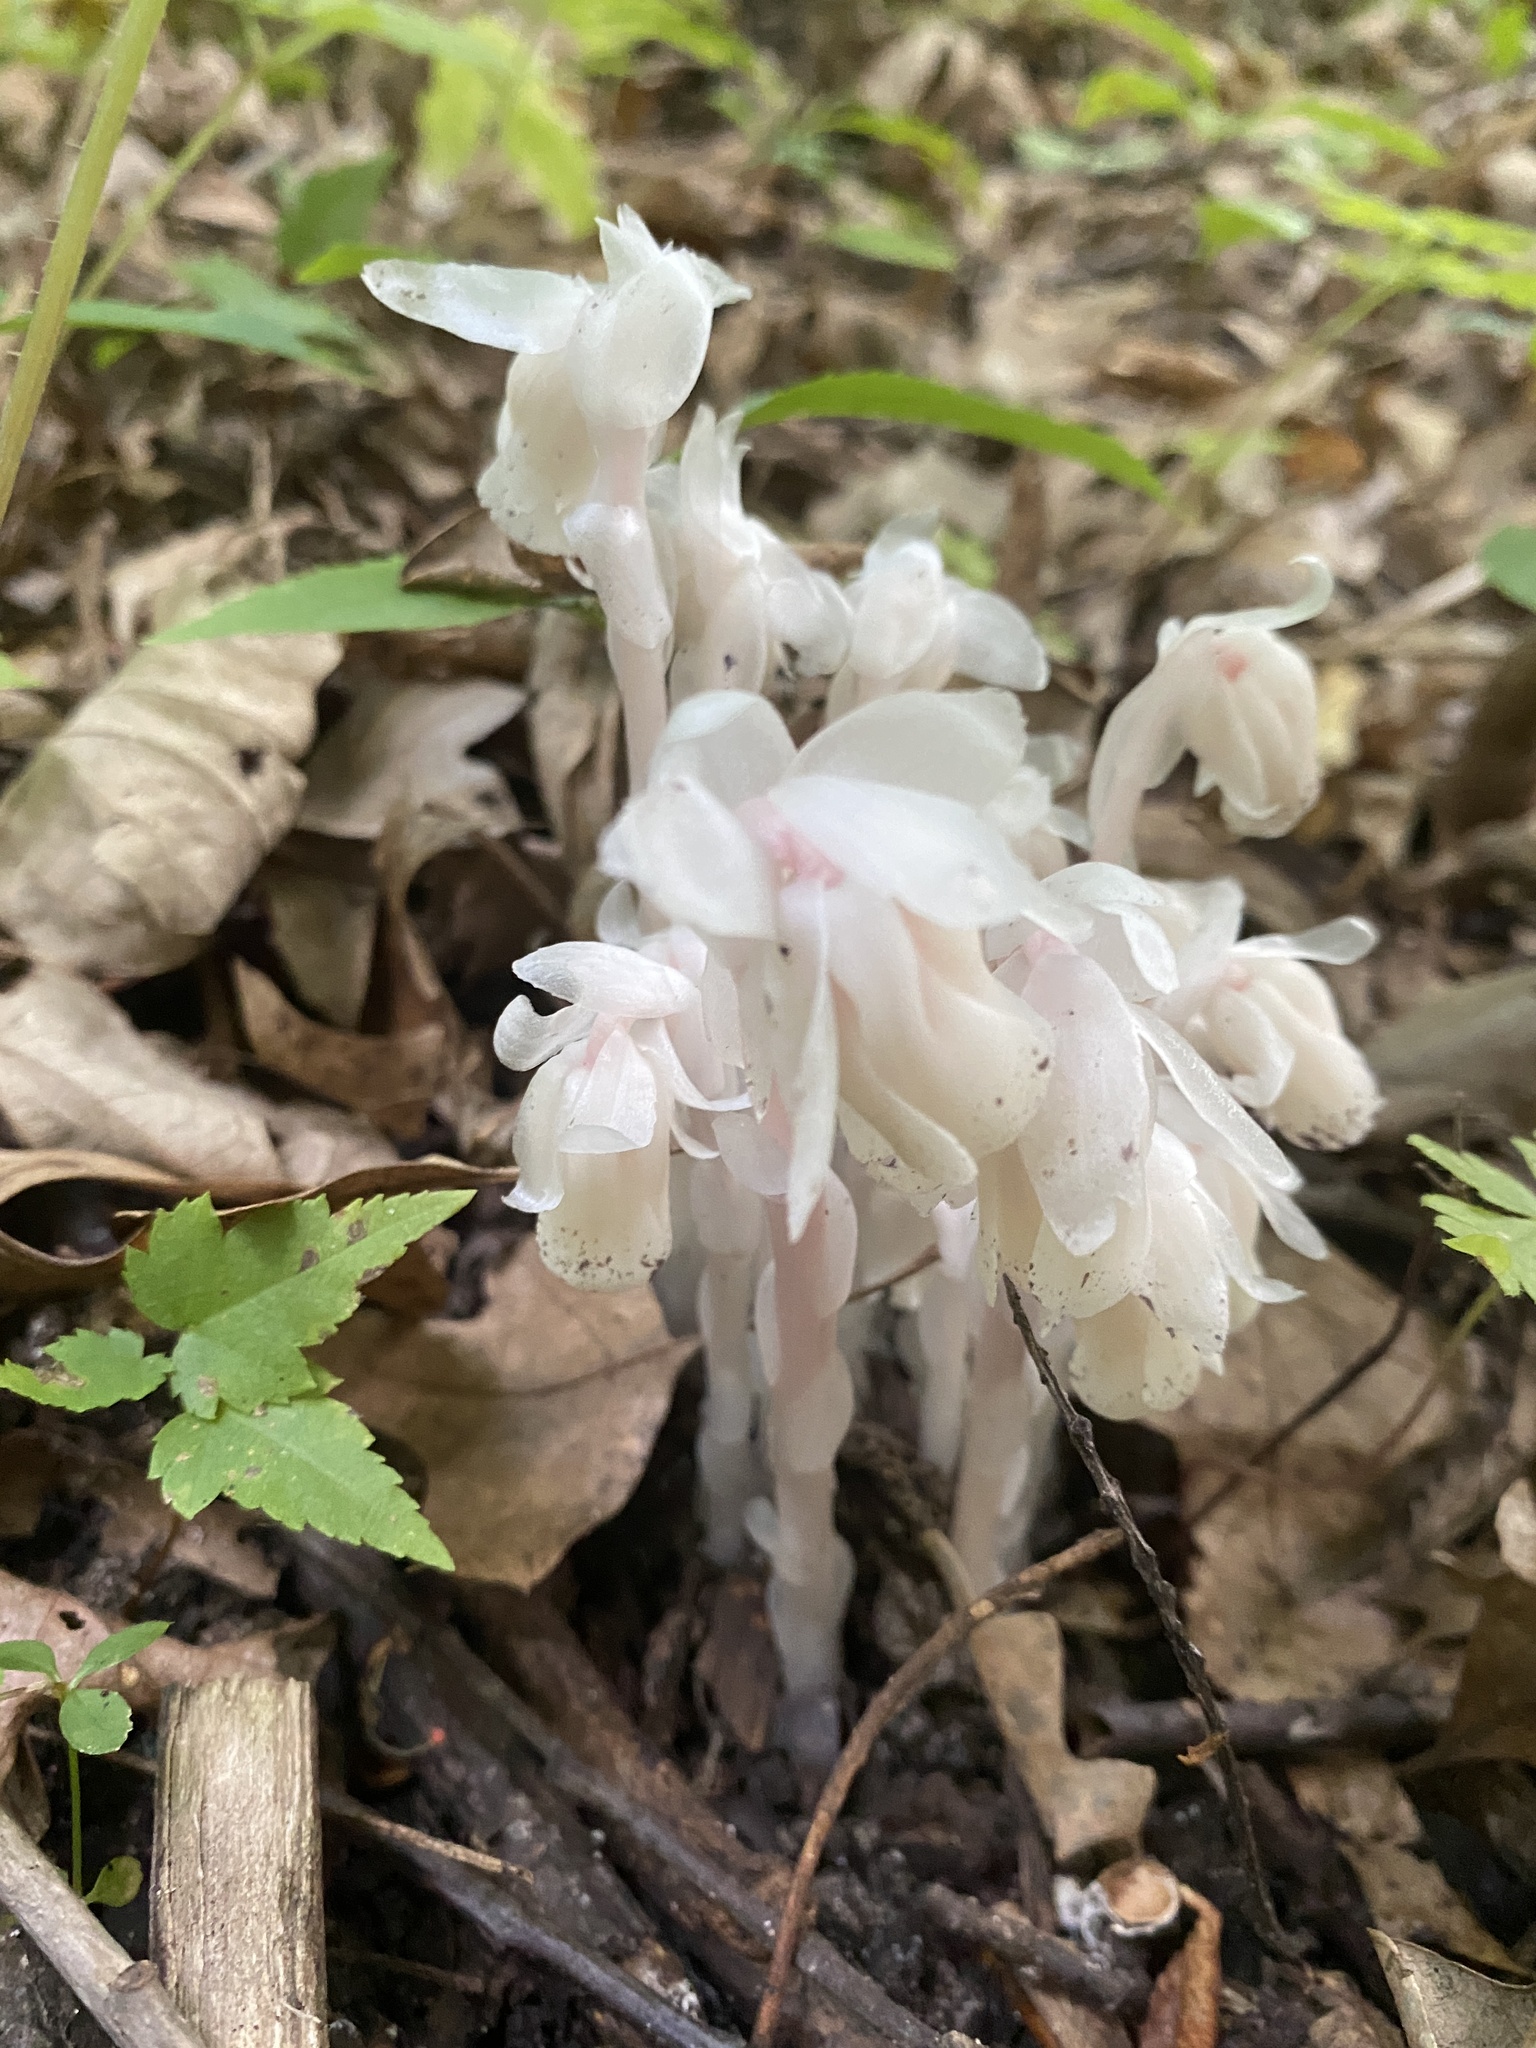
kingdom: Plantae
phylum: Tracheophyta
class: Magnoliopsida
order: Ericales
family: Ericaceae
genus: Monotropa
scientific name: Monotropa uniflora
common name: Convulsion root
